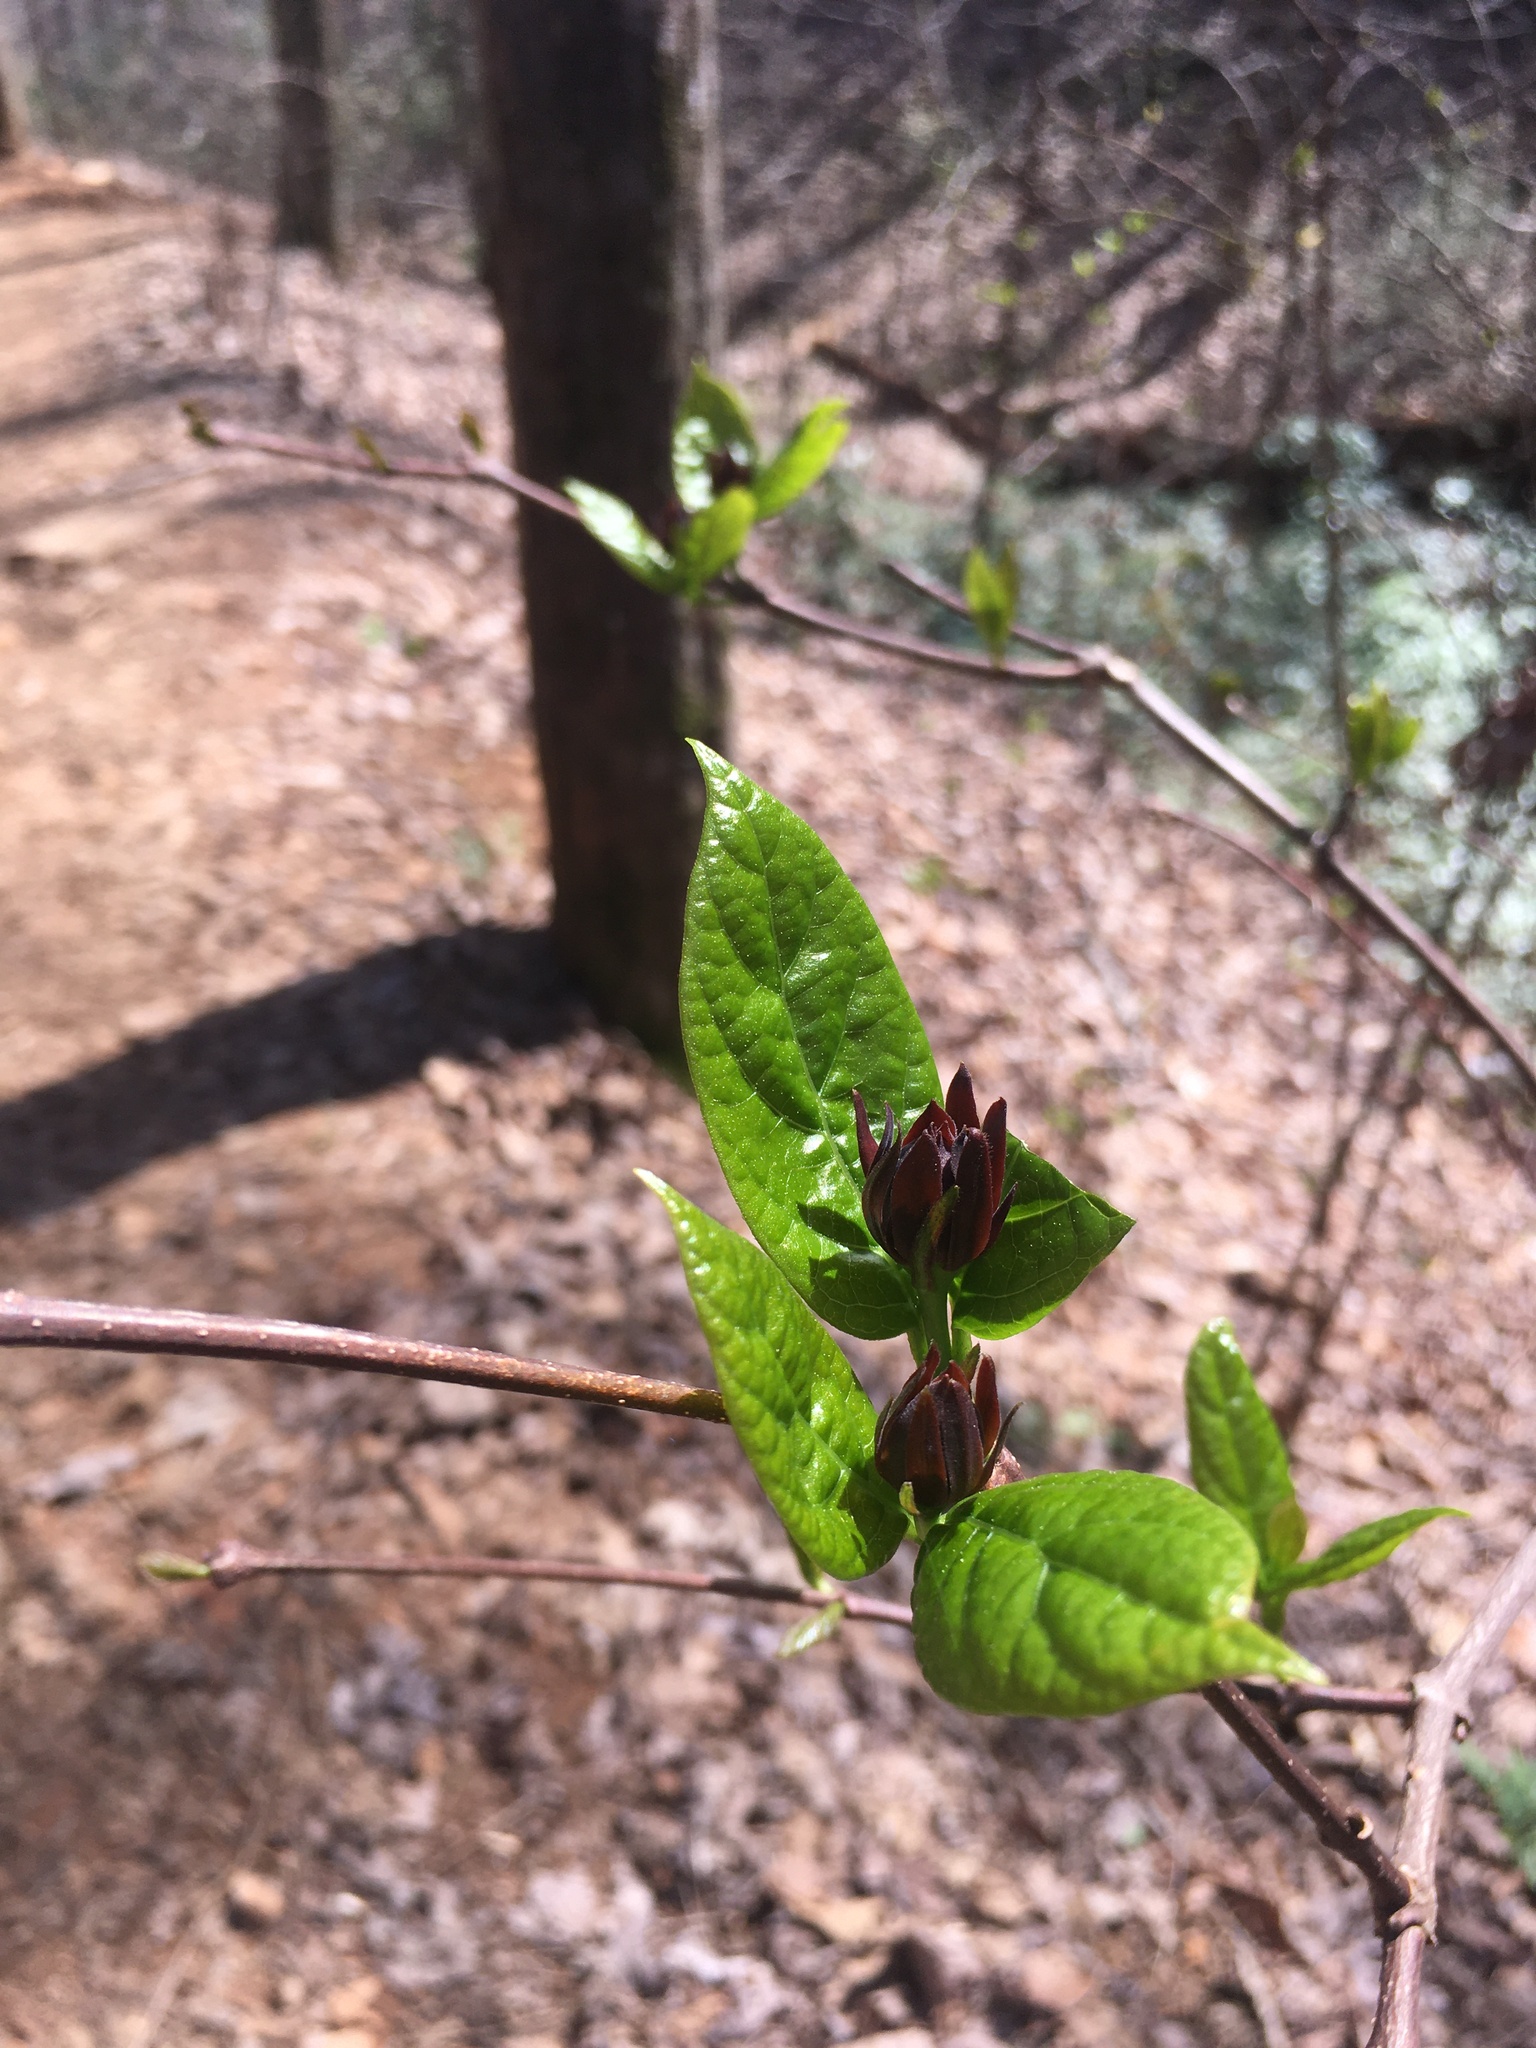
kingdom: Plantae
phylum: Tracheophyta
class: Magnoliopsida
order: Laurales
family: Calycanthaceae
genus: Calycanthus
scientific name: Calycanthus floridus
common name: Carolina-allspice
